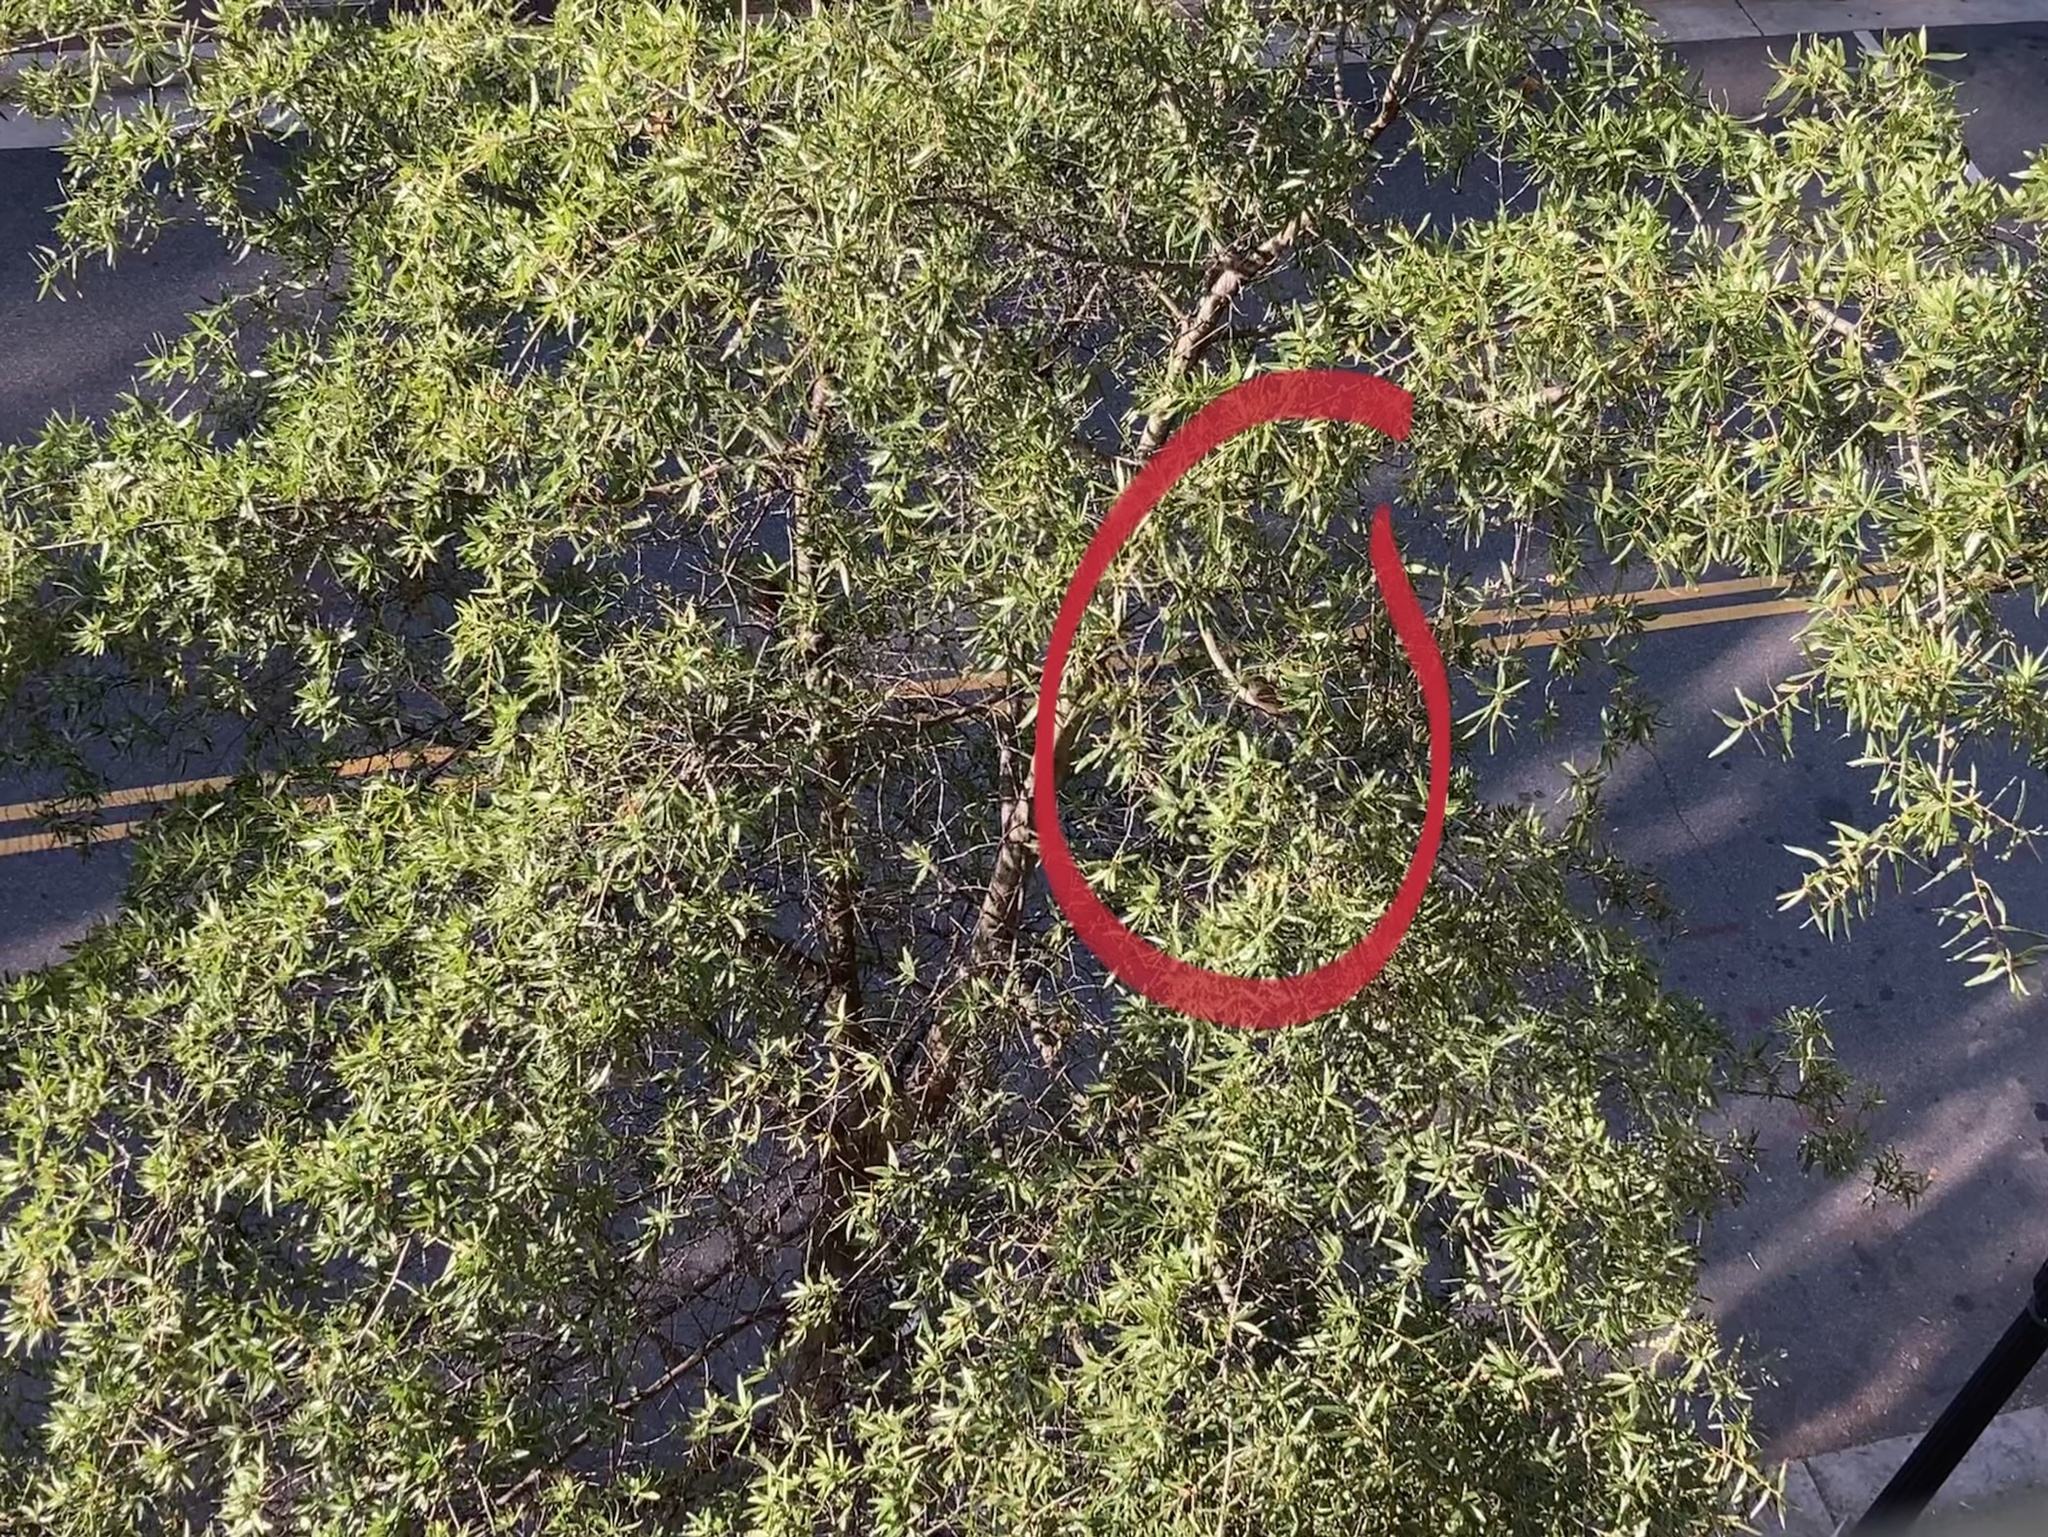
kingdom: Animalia
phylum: Chordata
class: Aves
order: Passeriformes
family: Passeridae
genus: Passer
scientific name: Passer domesticus
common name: House sparrow
